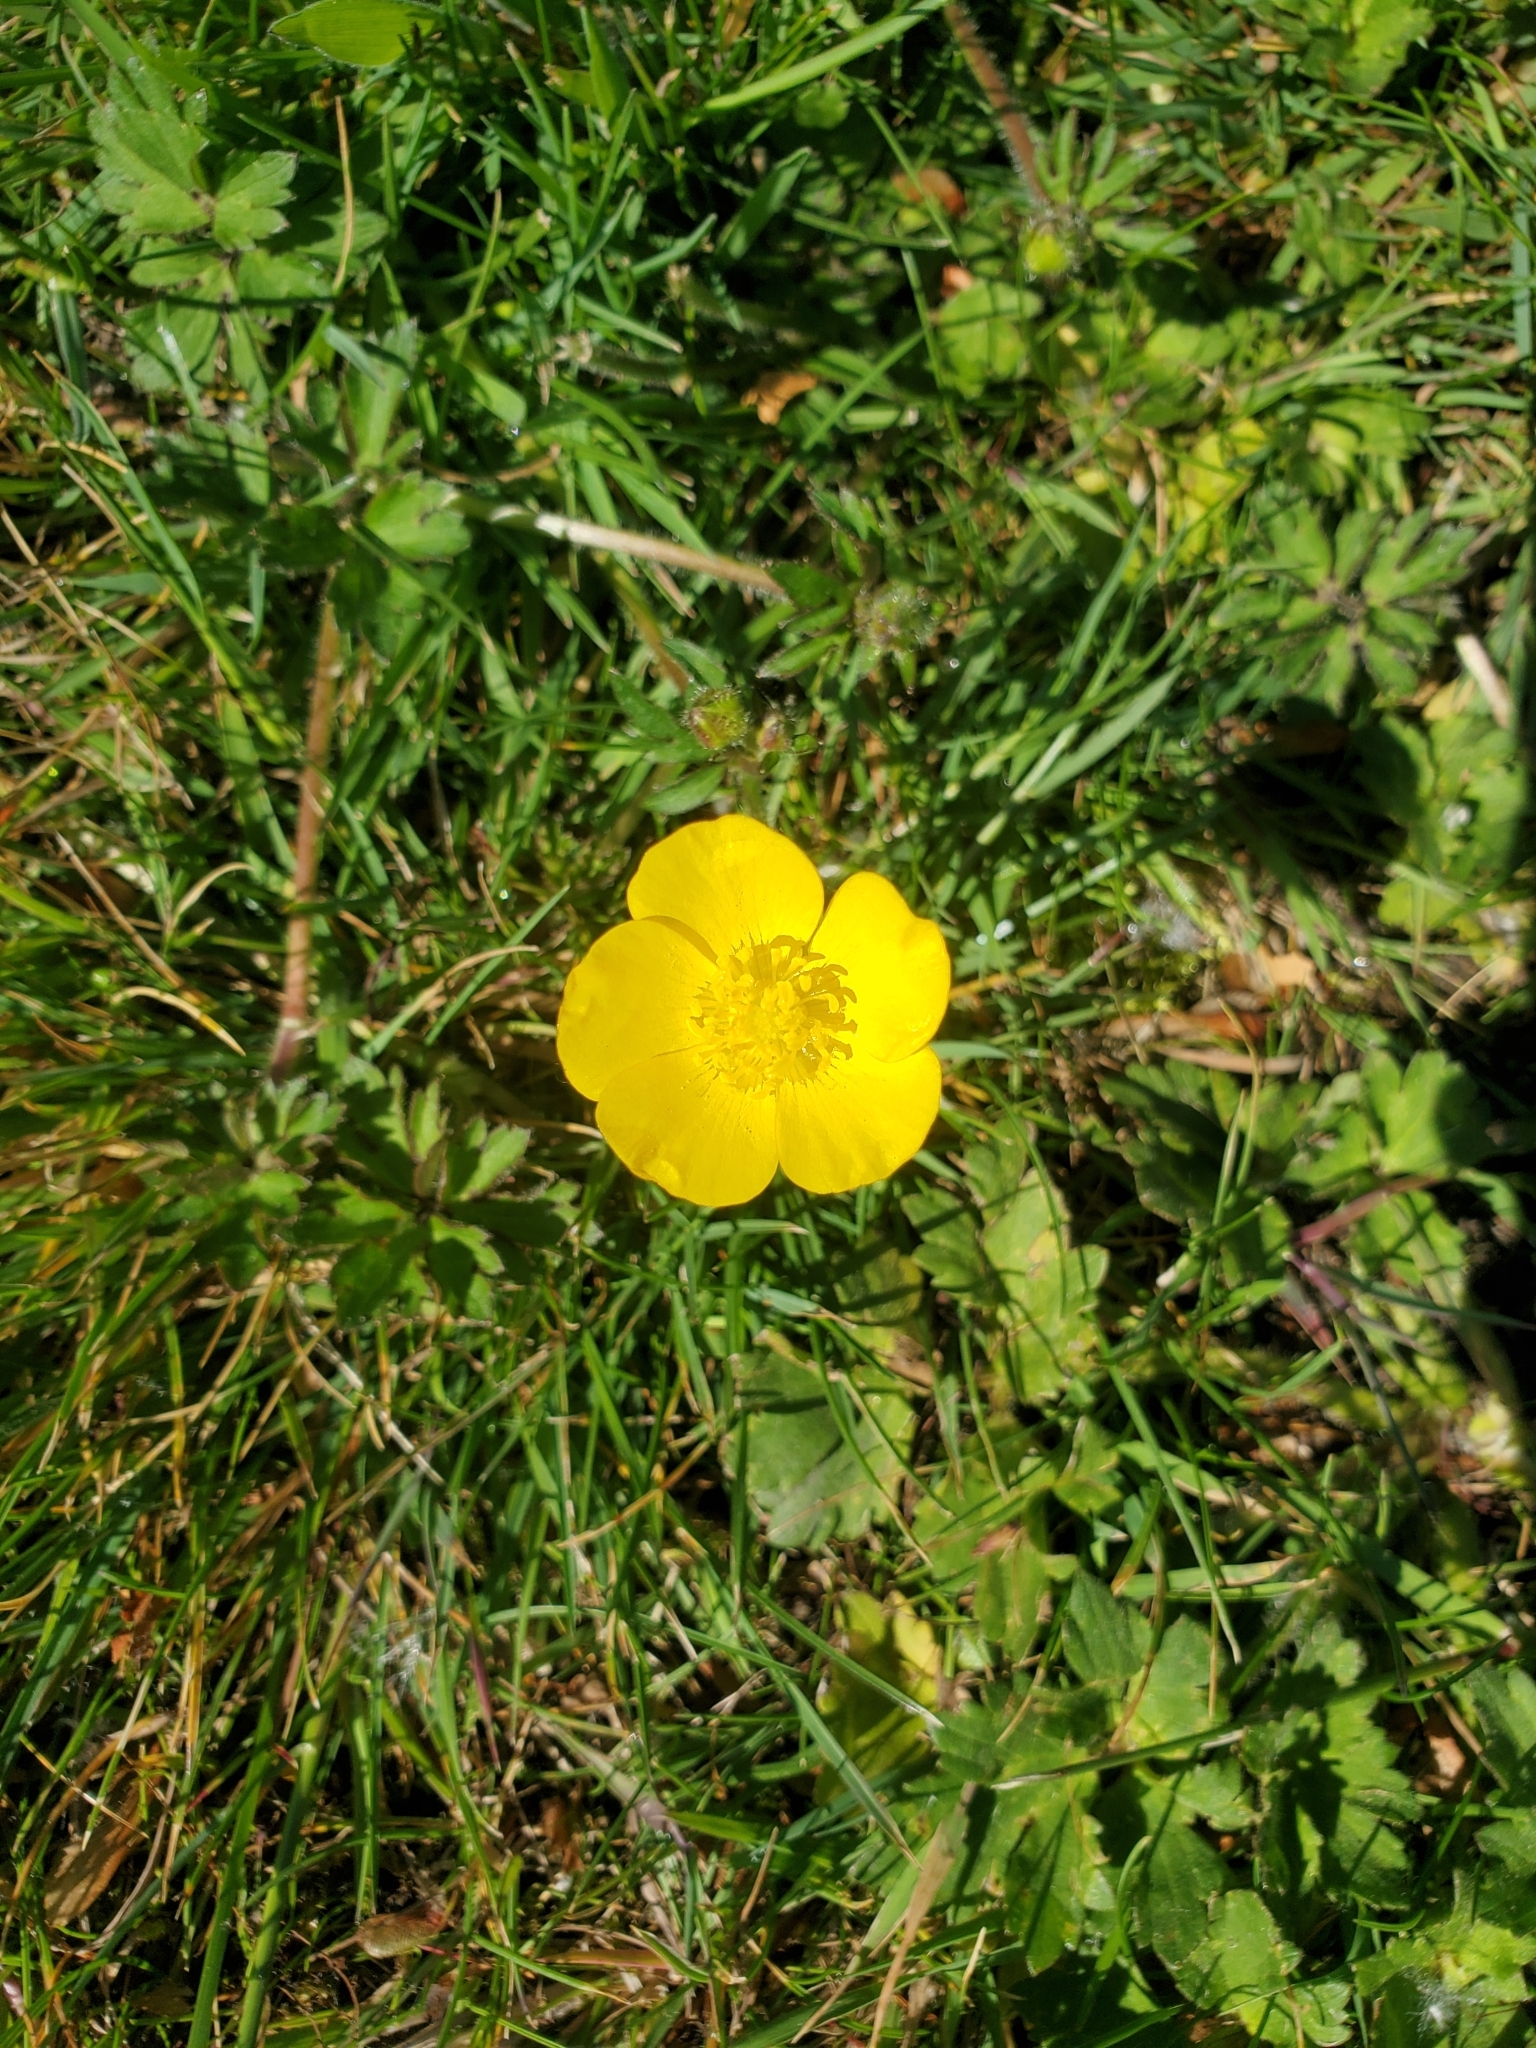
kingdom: Plantae
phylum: Tracheophyta
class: Magnoliopsida
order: Ranunculales
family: Ranunculaceae
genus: Ranunculus
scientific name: Ranunculus repens
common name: Creeping buttercup
